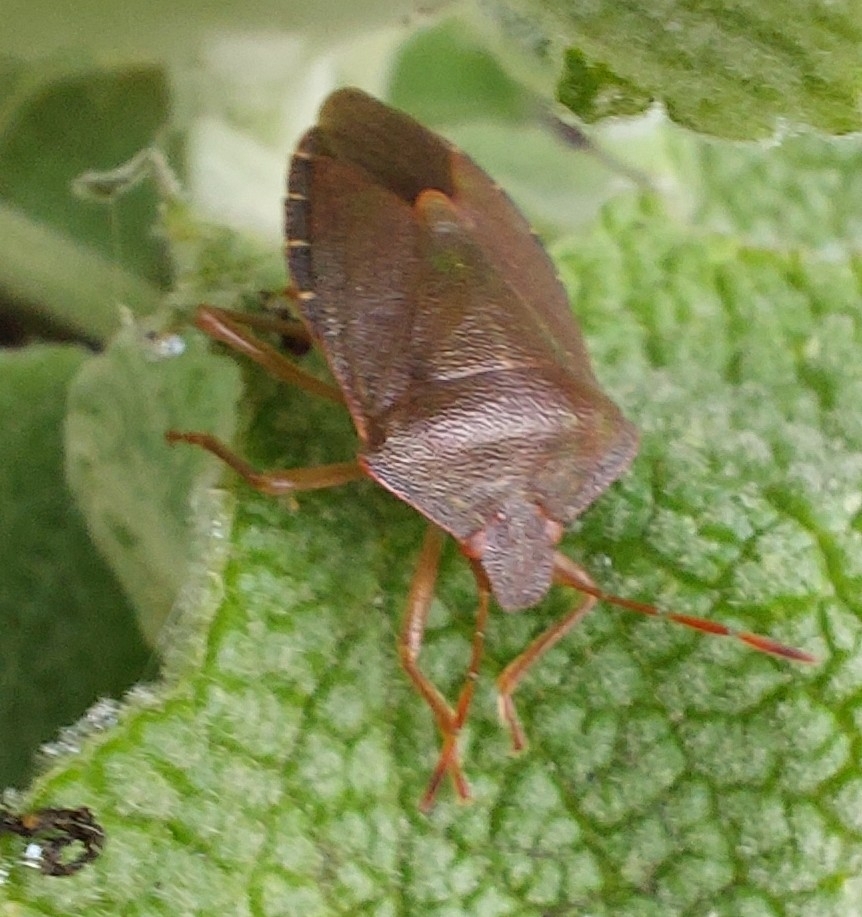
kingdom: Animalia
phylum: Arthropoda
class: Insecta
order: Hemiptera
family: Pentatomidae
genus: Palomena
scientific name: Palomena prasina
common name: Green shieldbug
